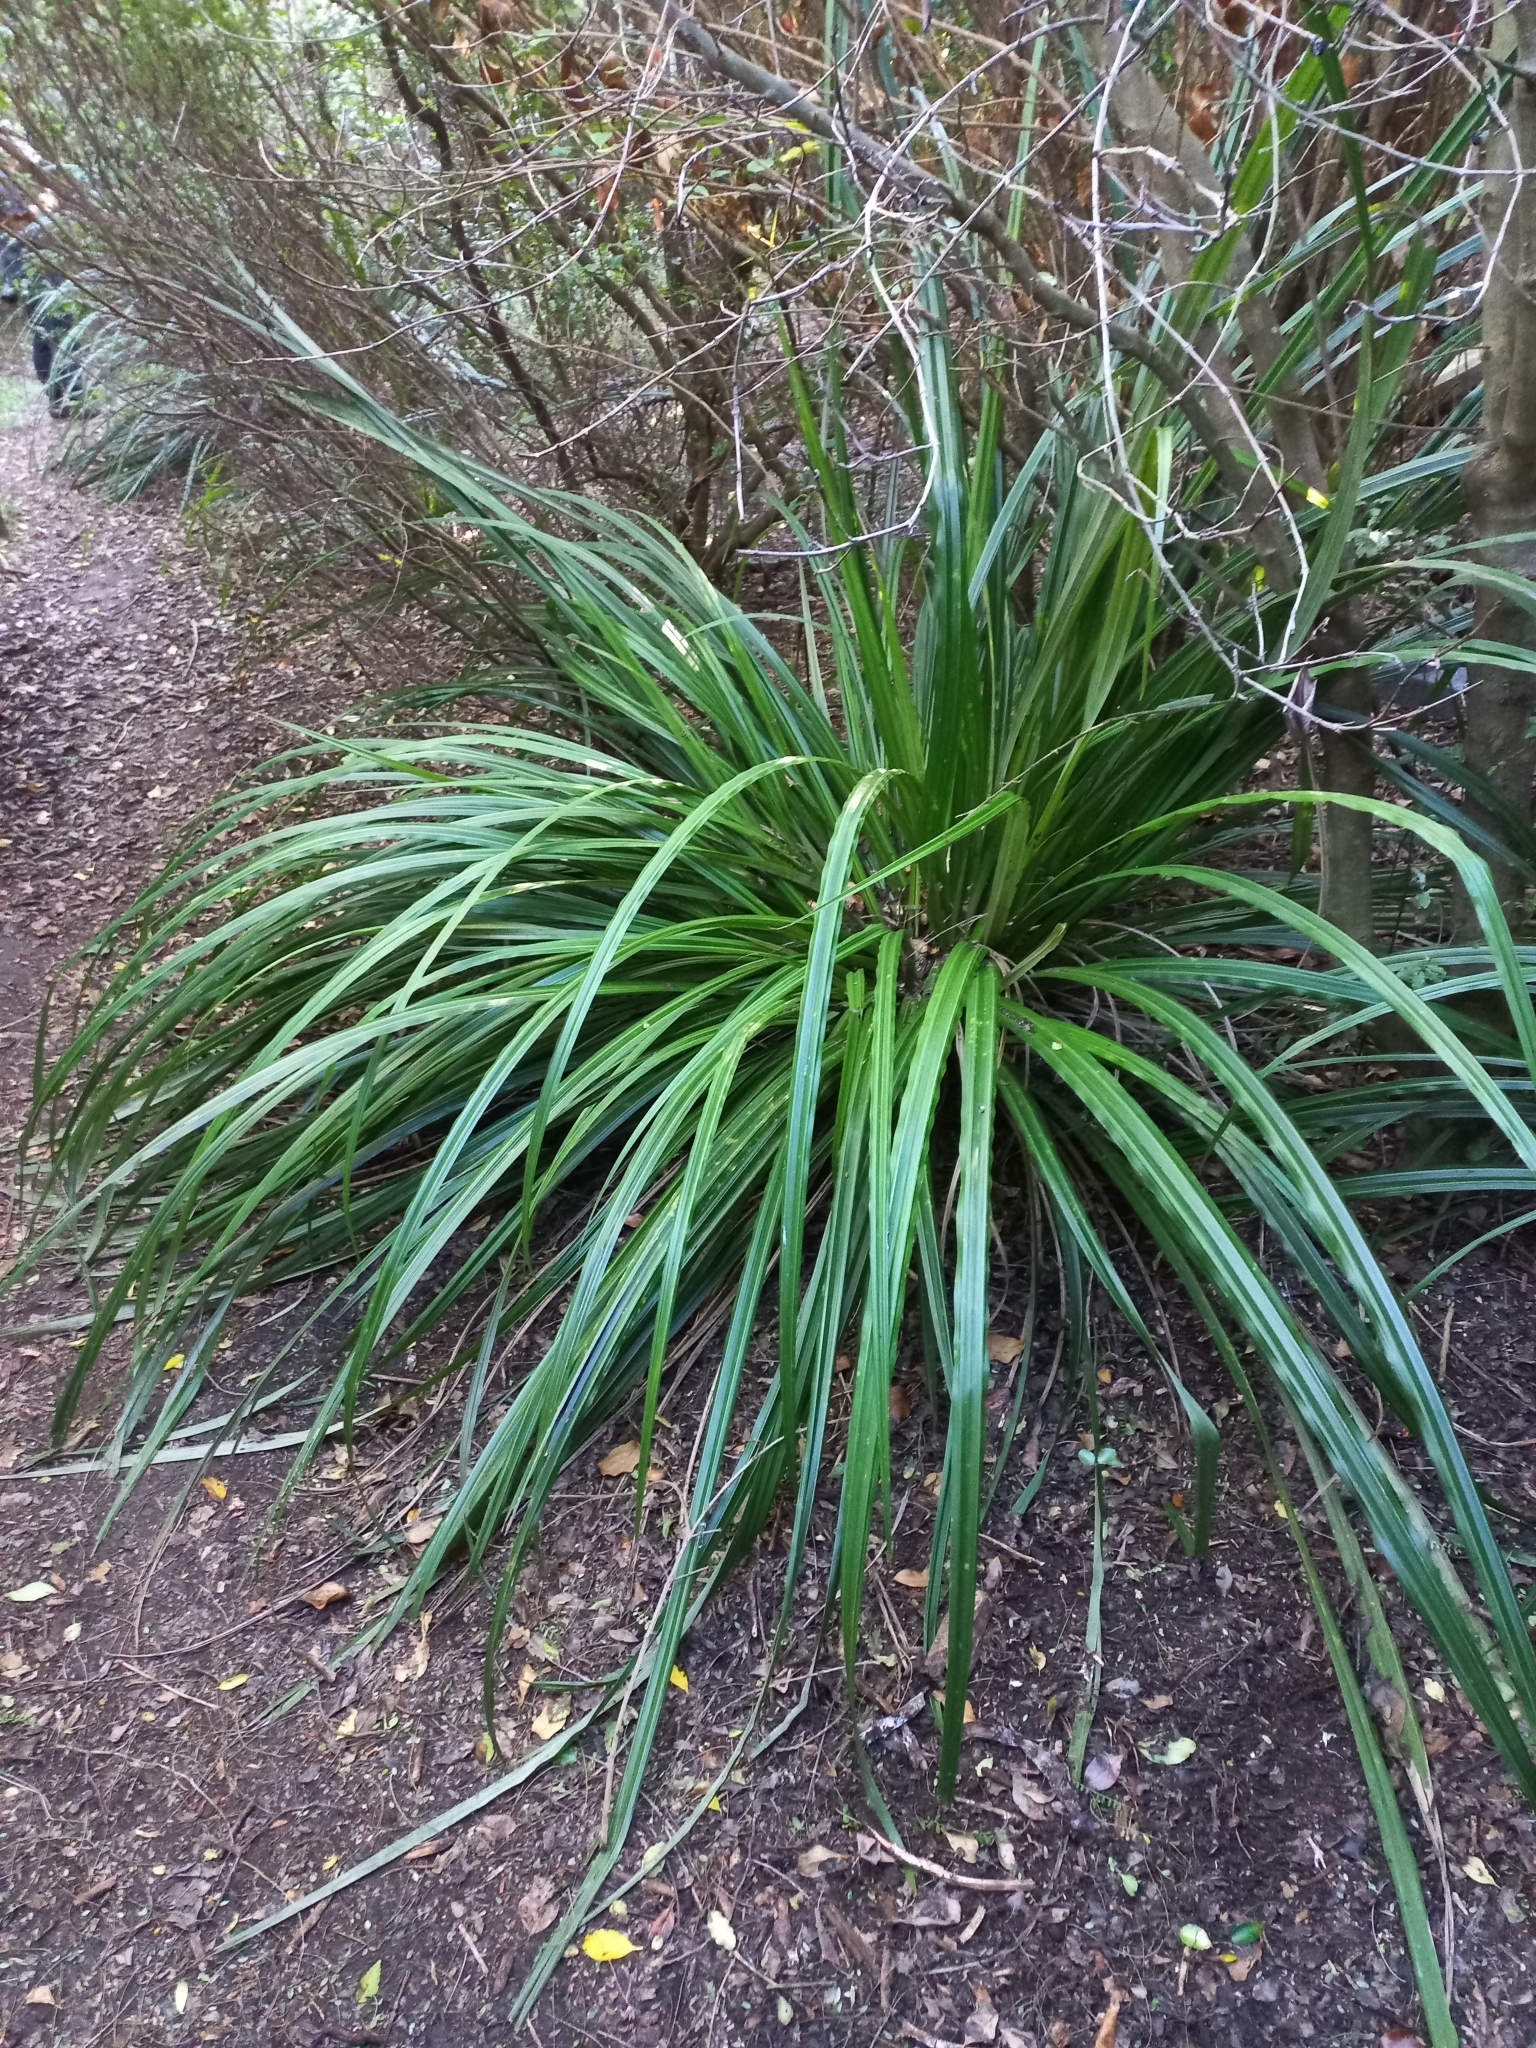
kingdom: Plantae
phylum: Tracheophyta
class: Liliopsida
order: Asparagales
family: Asteliaceae
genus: Astelia
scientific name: Astelia fragrans
